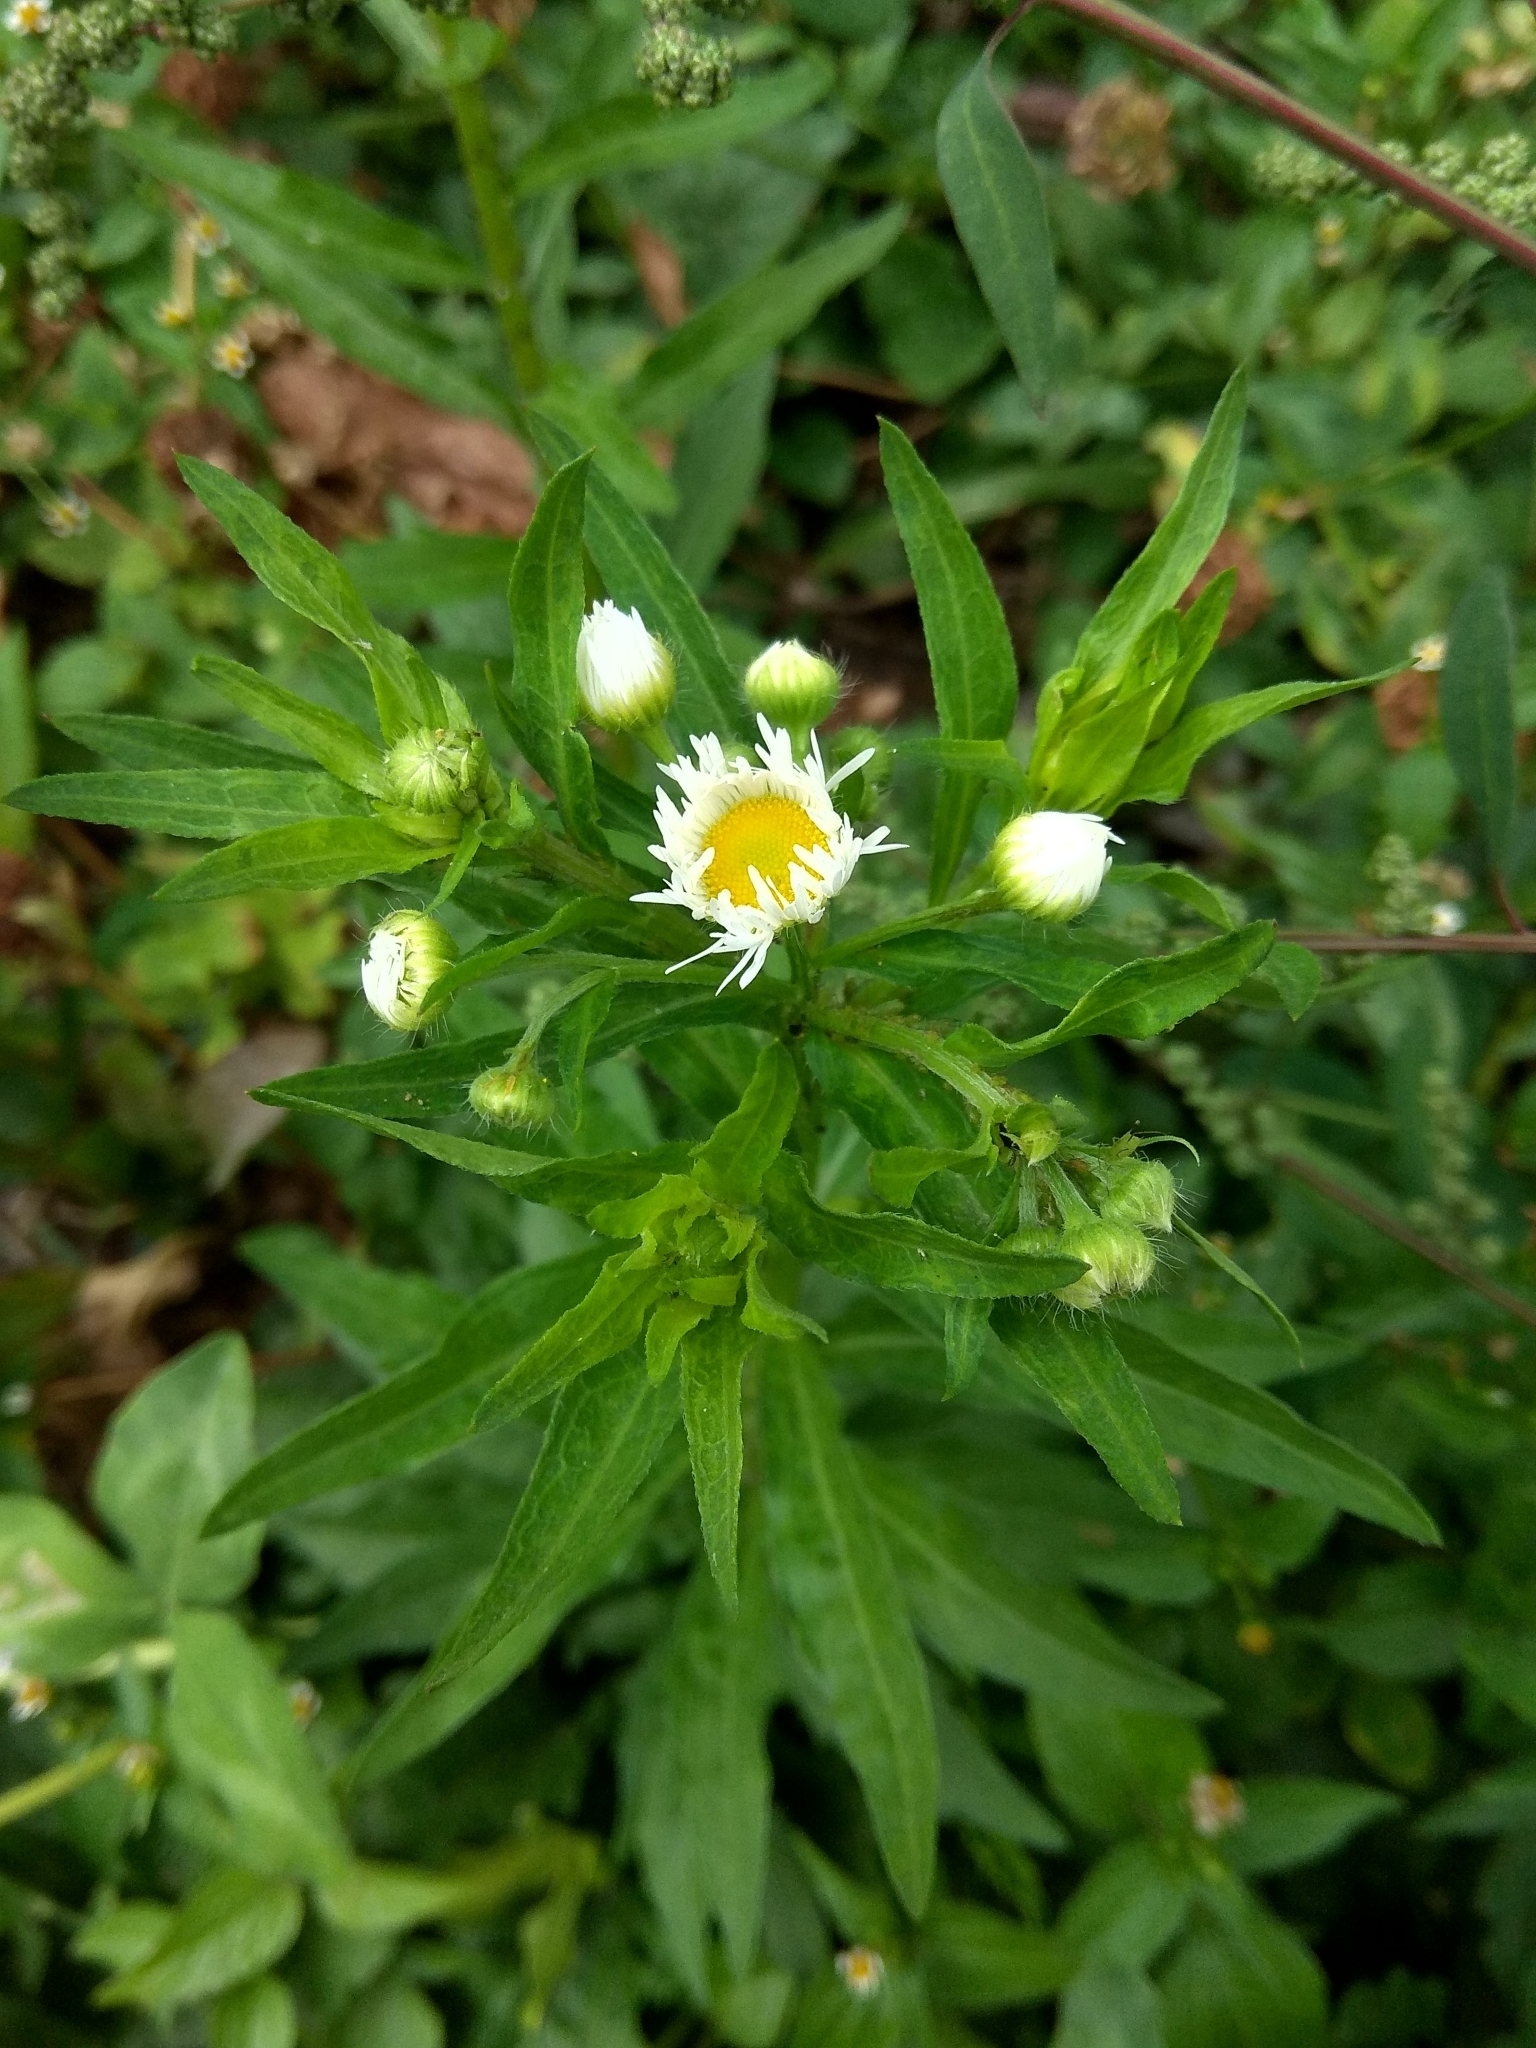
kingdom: Plantae
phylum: Tracheophyta
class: Magnoliopsida
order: Asterales
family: Asteraceae
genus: Erigeron
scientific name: Erigeron annuus
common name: Tall fleabane
